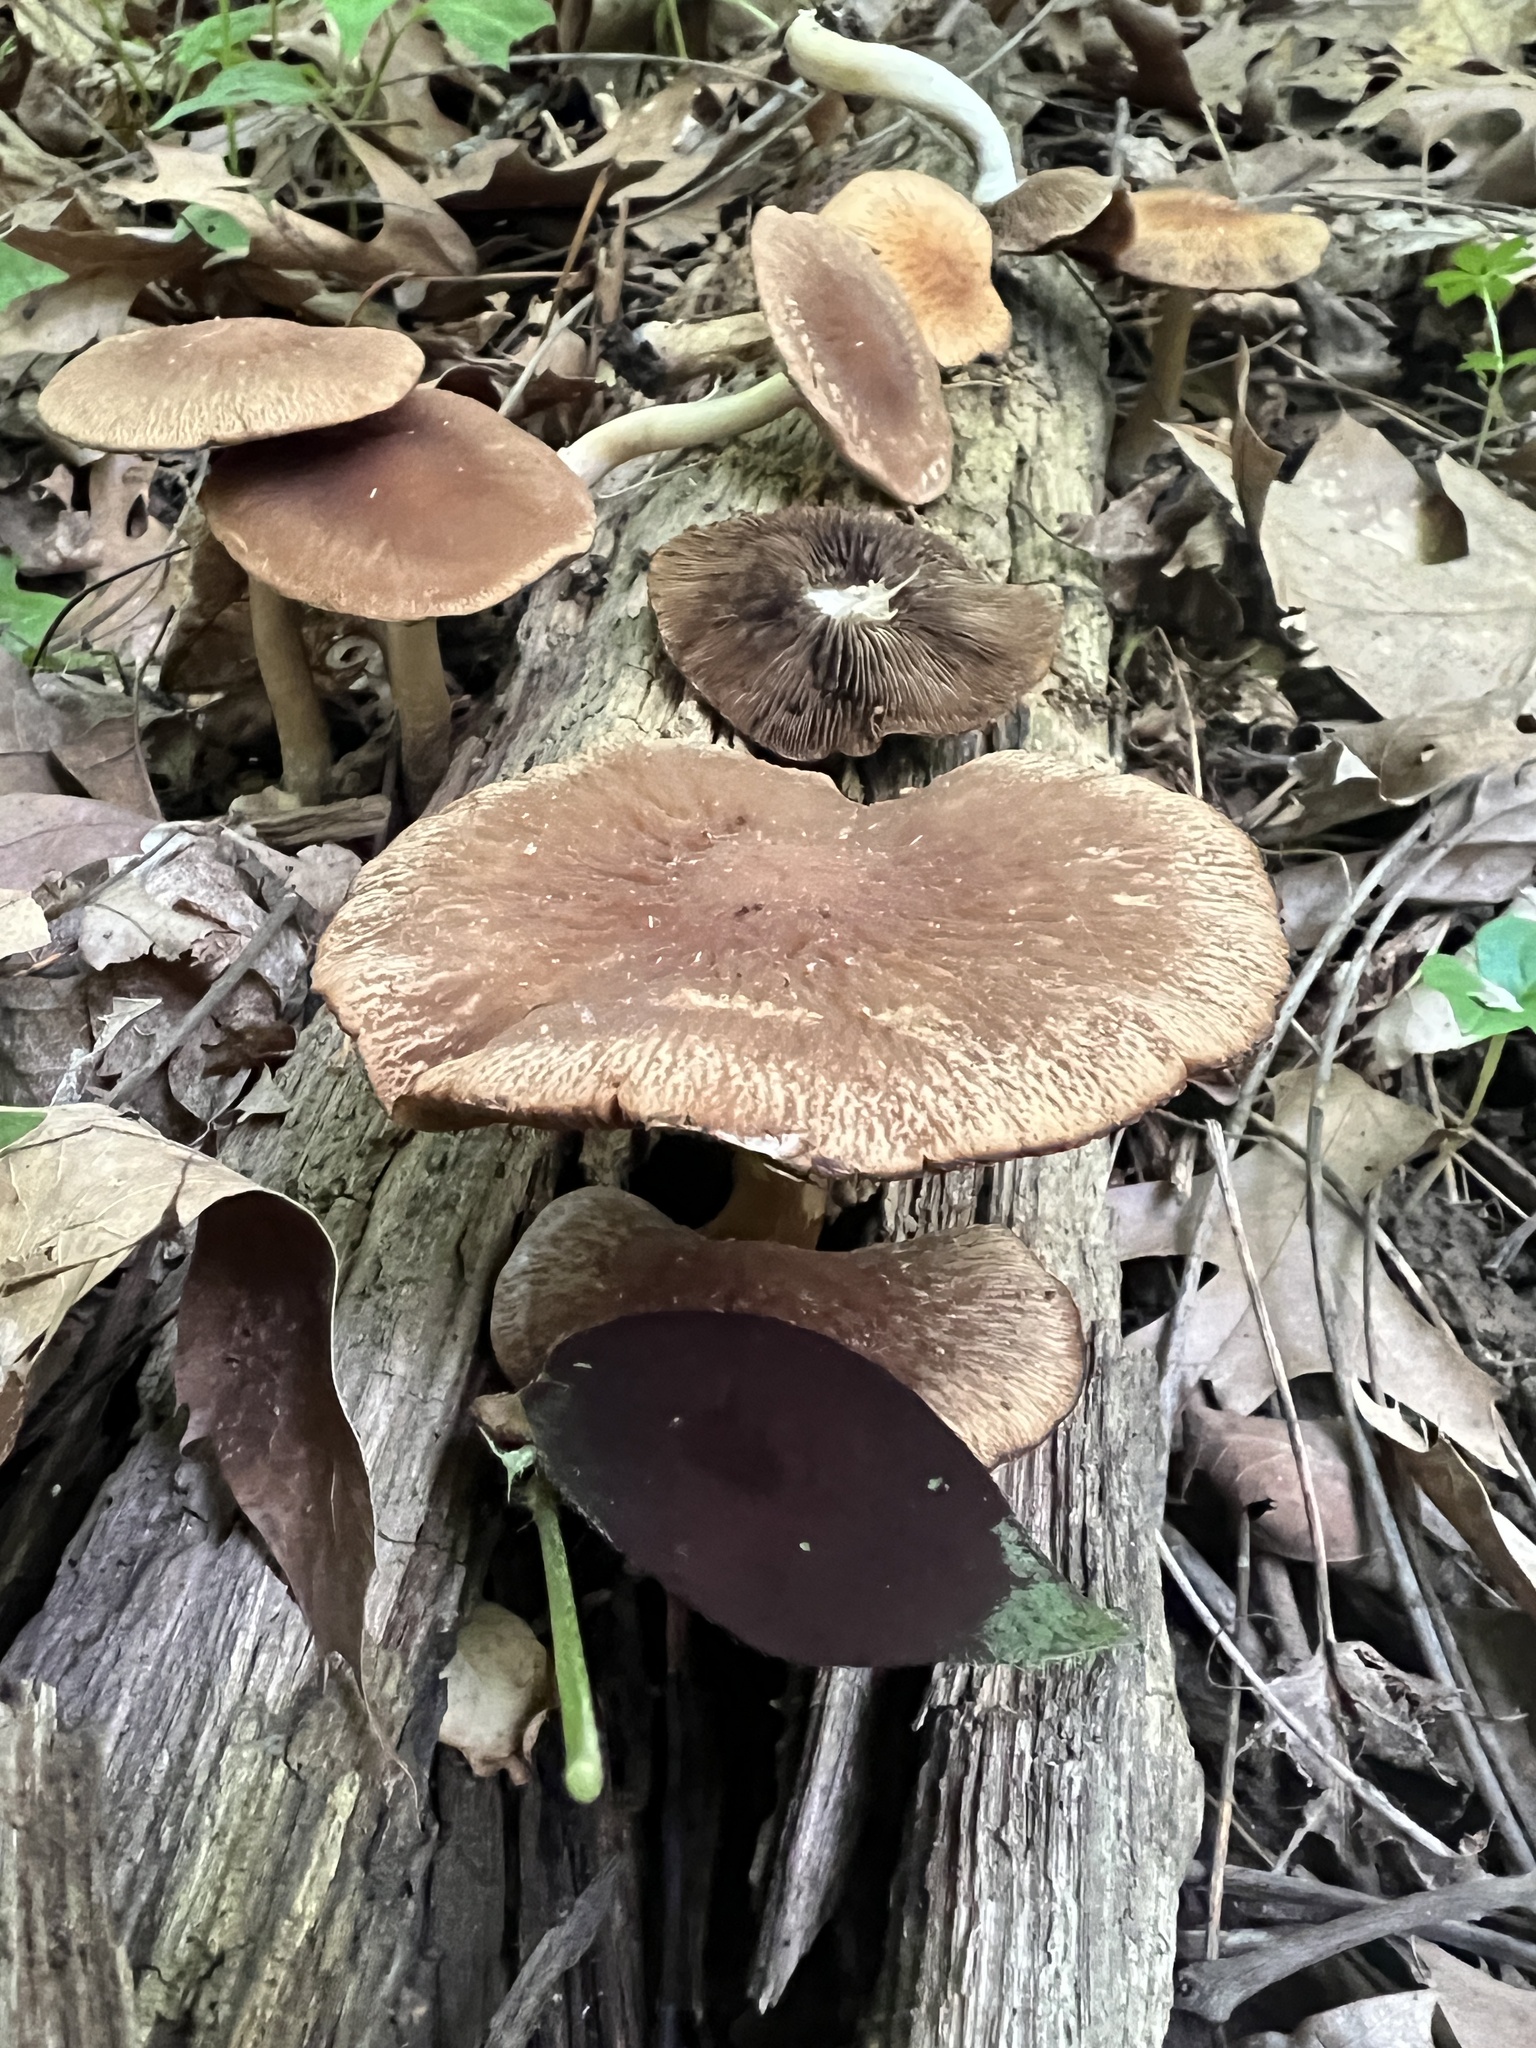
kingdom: Fungi
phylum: Basidiomycota
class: Agaricomycetes
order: Agaricales
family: Psathyrellaceae
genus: Typhrasa
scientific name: Typhrasa gossypina
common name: Wrinkled psathyrella
